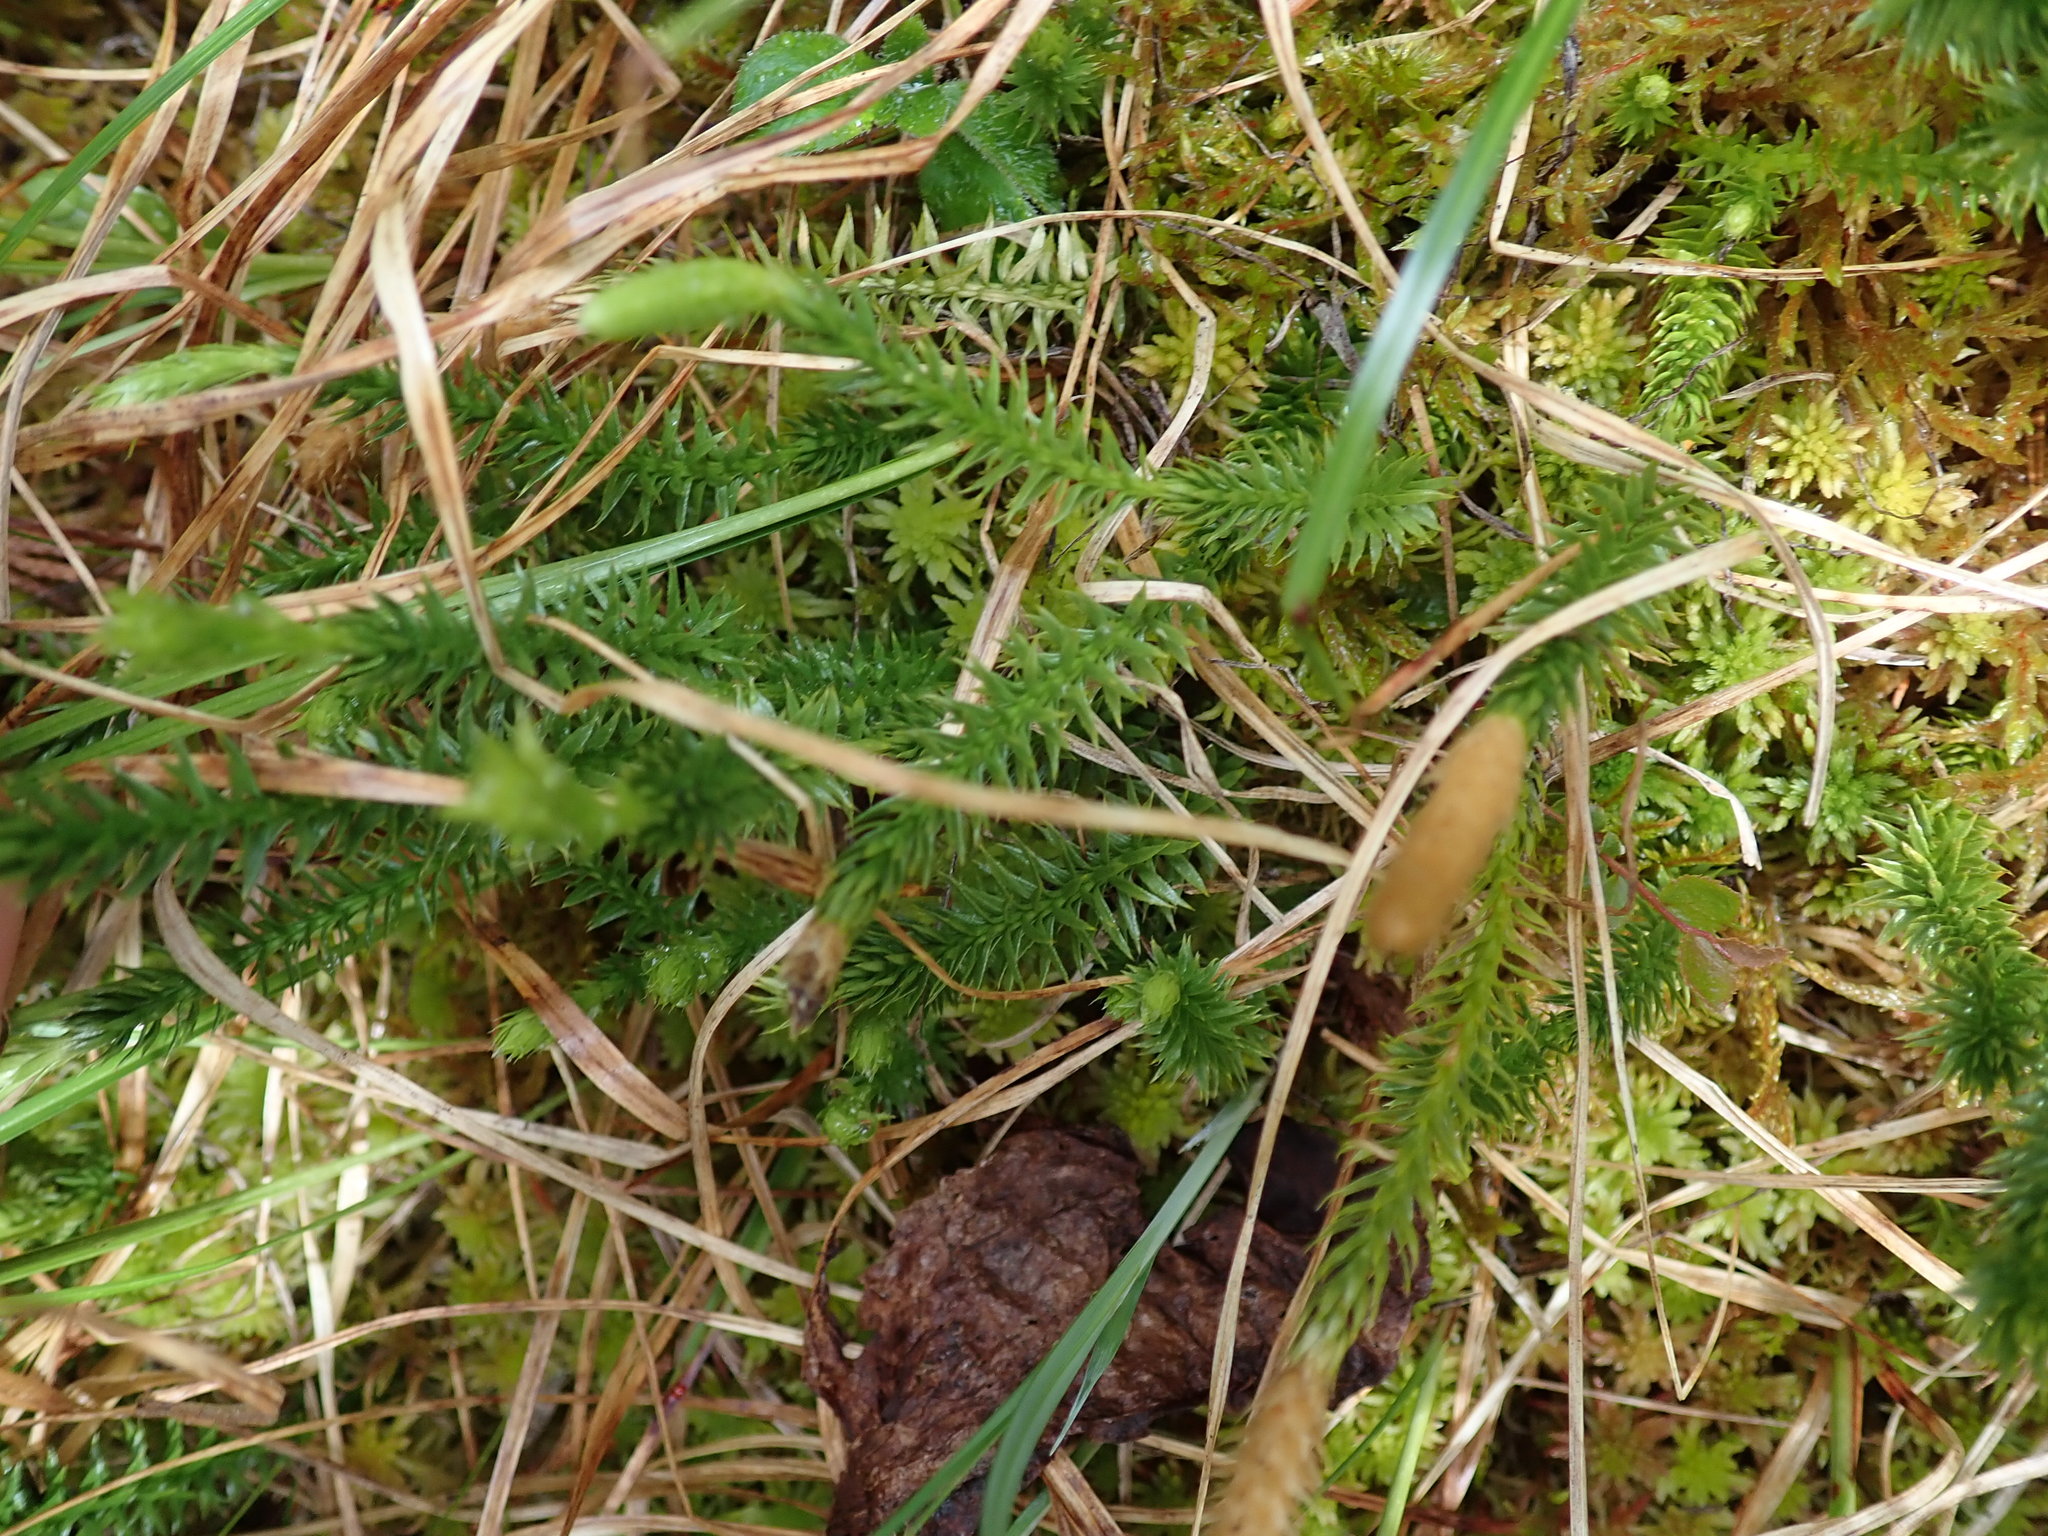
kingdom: Plantae
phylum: Tracheophyta
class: Lycopodiopsida
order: Lycopodiales
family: Lycopodiaceae
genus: Spinulum
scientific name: Spinulum annotinum
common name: Interrupted club-moss
